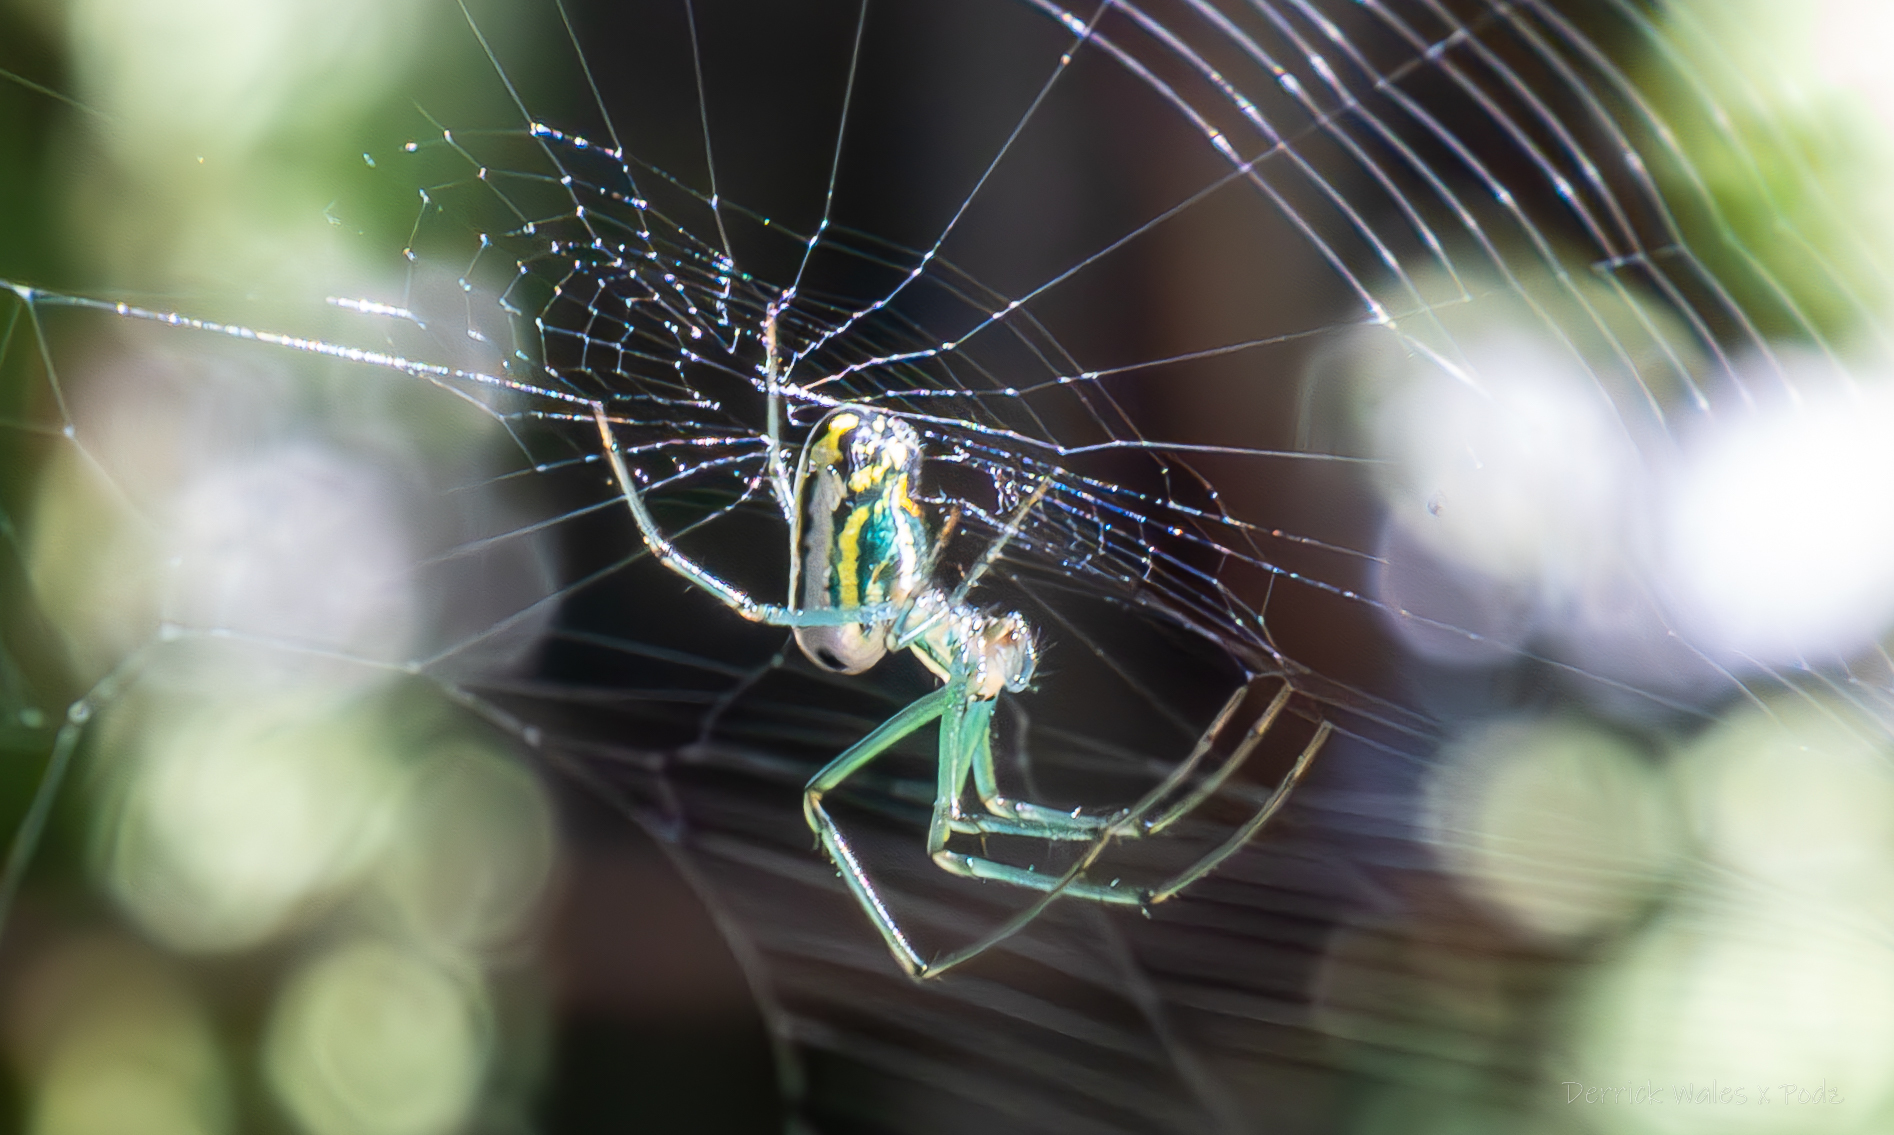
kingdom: Animalia
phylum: Arthropoda
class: Arachnida
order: Araneae
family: Tetragnathidae
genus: Leucauge
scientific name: Leucauge venusta
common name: Longjawed orb weavers
